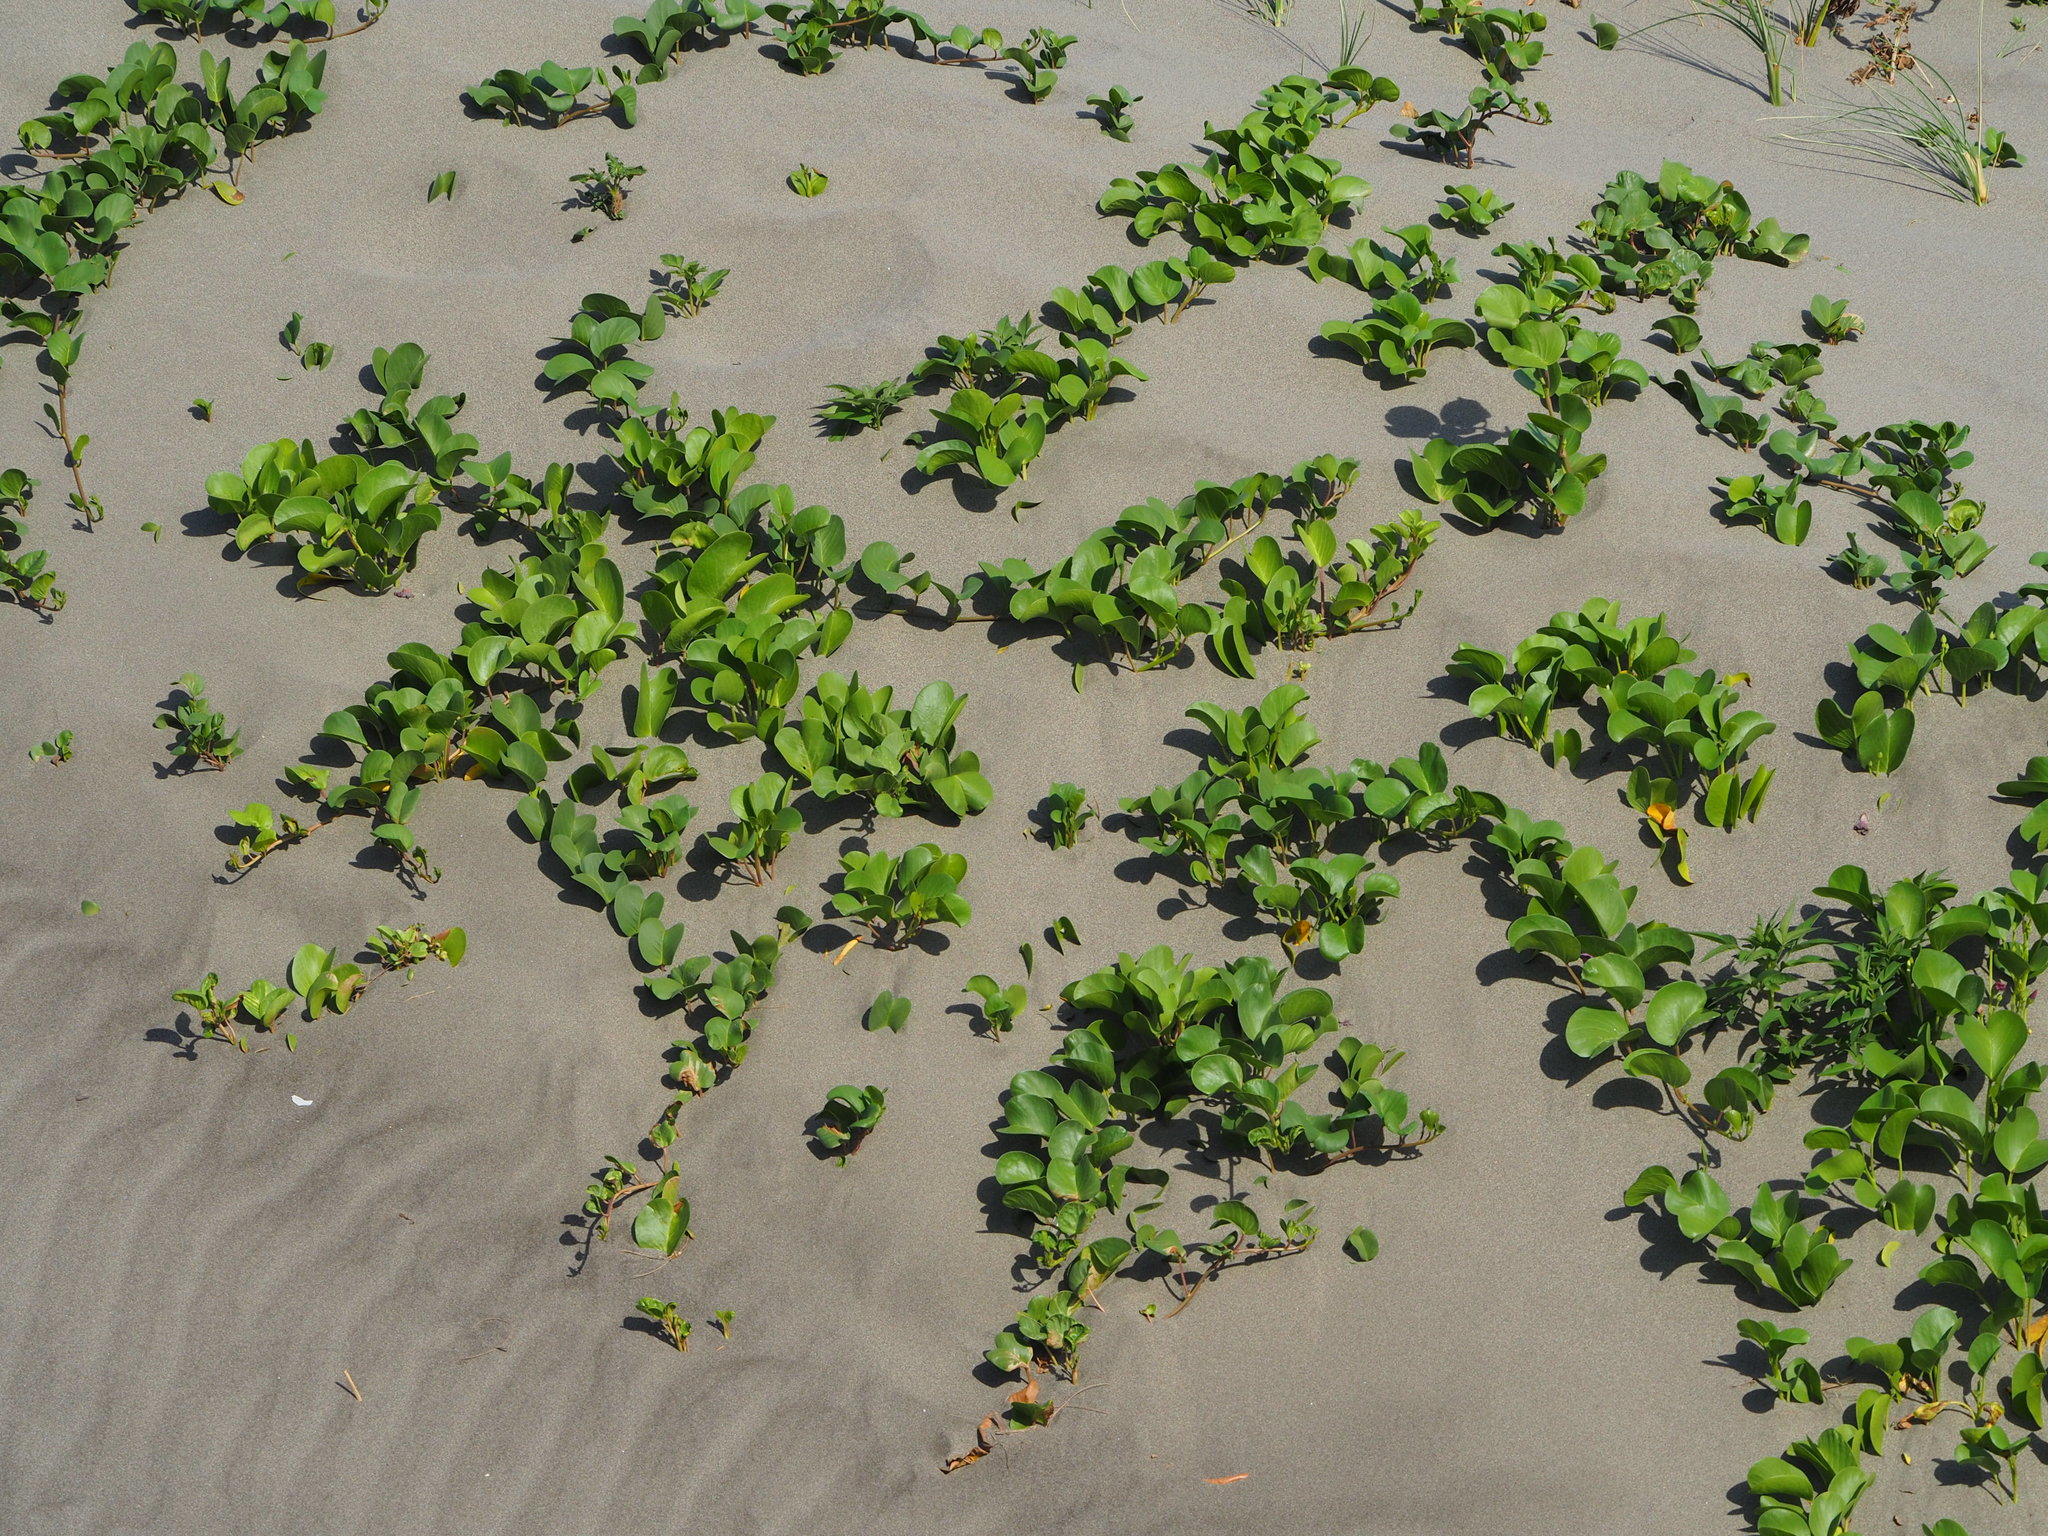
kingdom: Plantae
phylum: Tracheophyta
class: Magnoliopsida
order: Solanales
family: Convolvulaceae
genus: Ipomoea
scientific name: Ipomoea pes-caprae
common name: Beach morning glory
